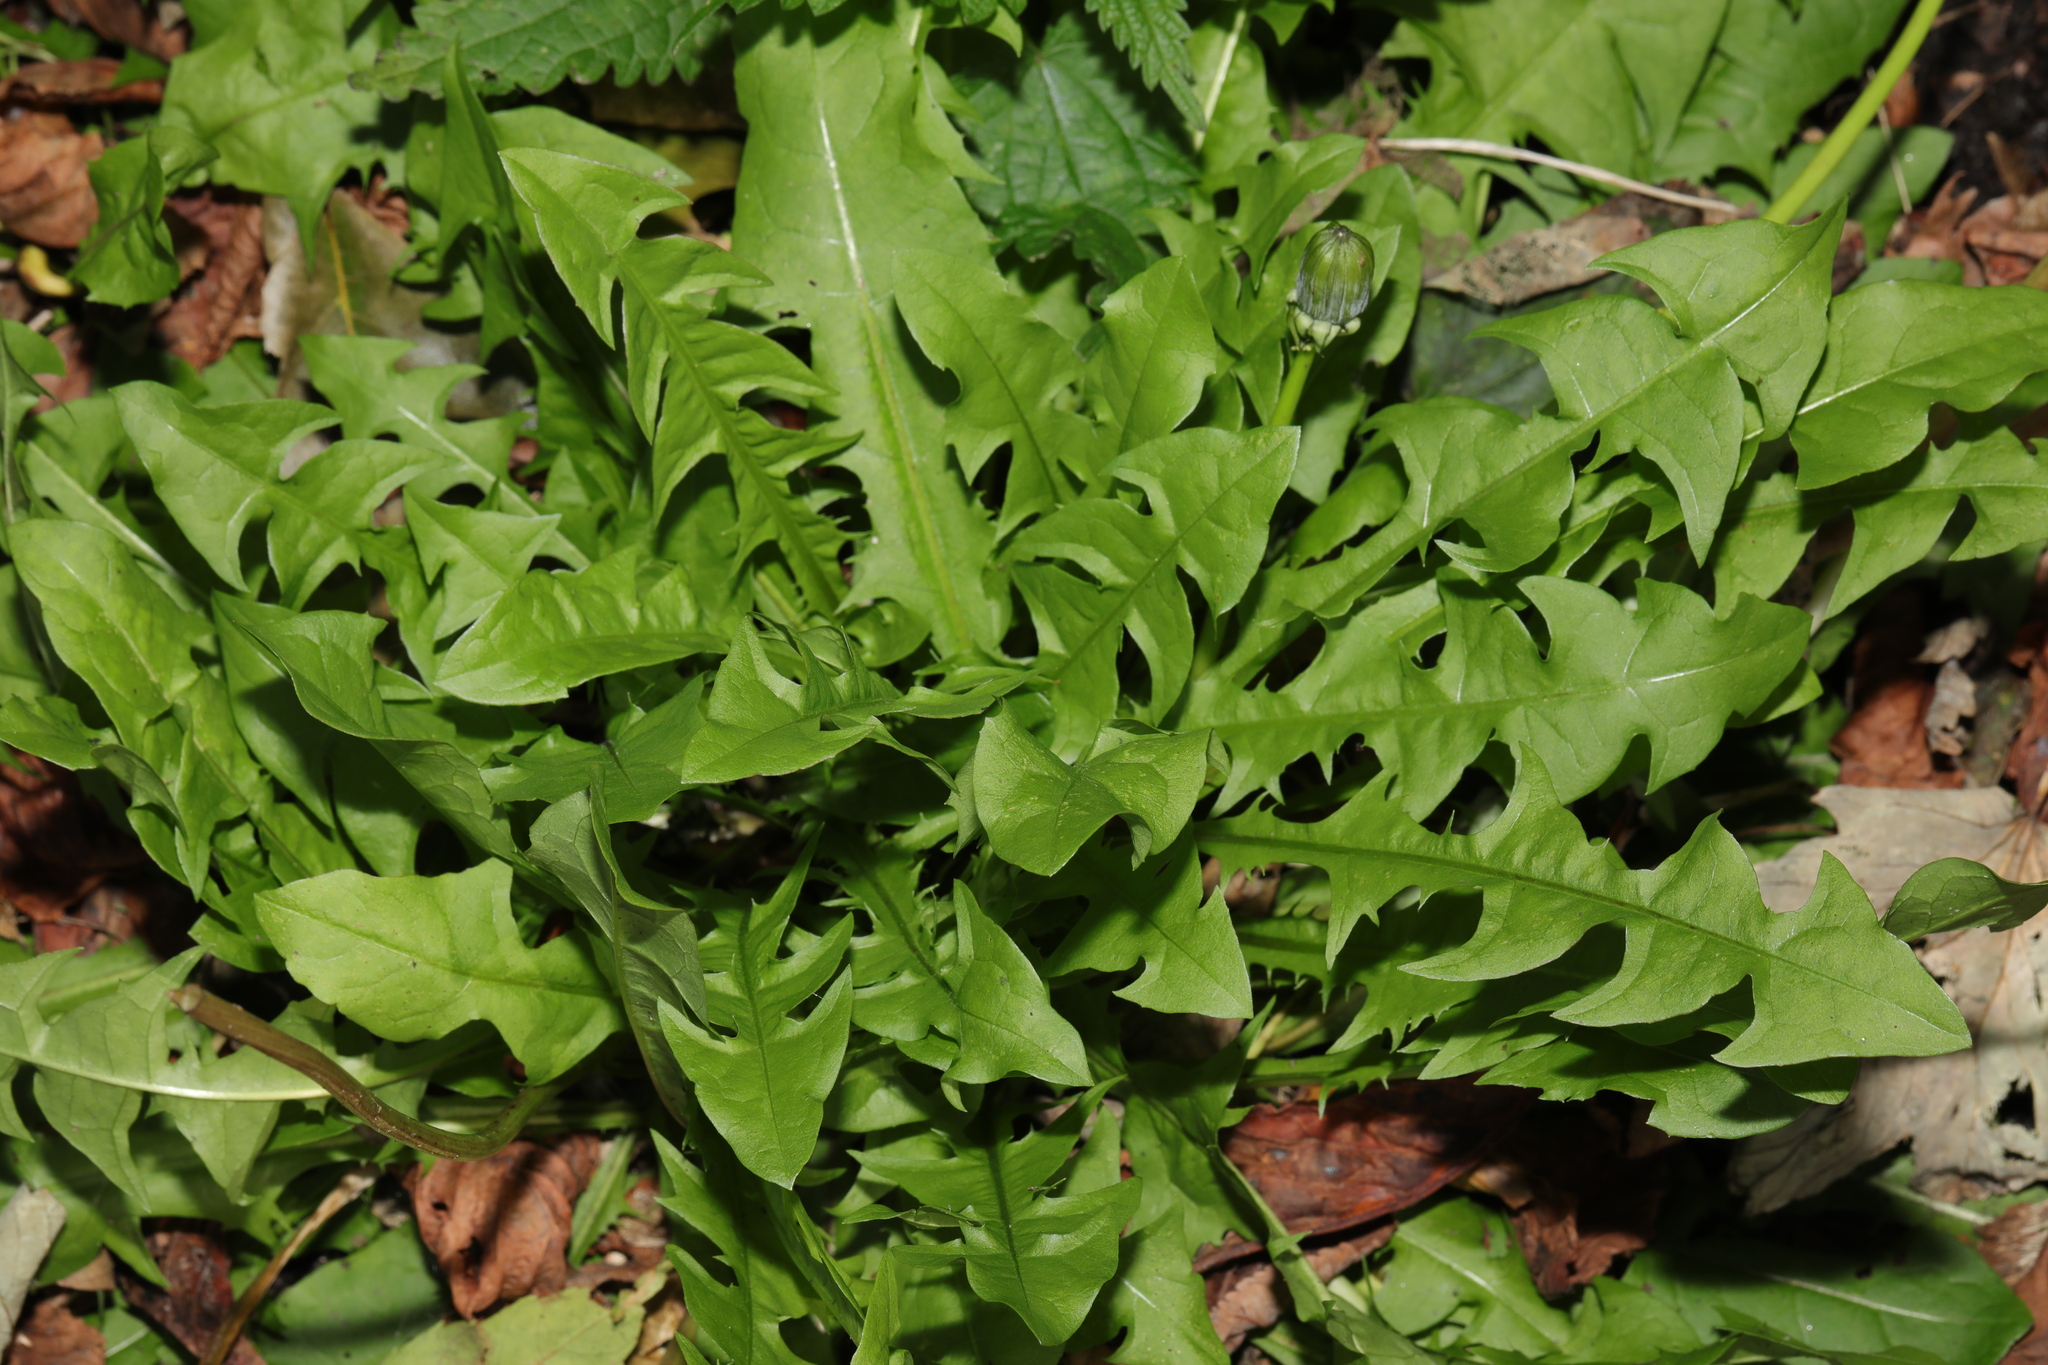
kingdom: Plantae
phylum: Tracheophyta
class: Magnoliopsida
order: Asterales
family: Asteraceae
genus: Taraxacum
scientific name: Taraxacum officinale
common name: Common dandelion
